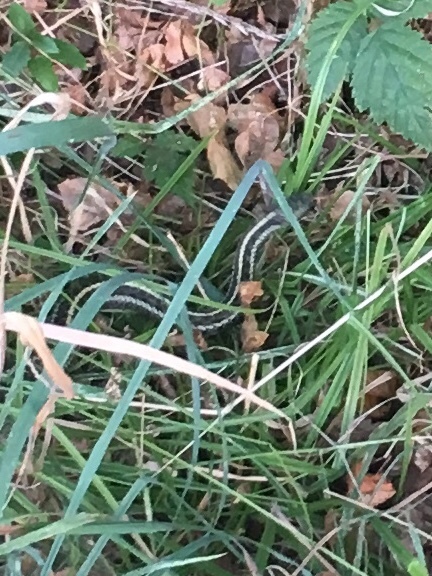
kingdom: Animalia
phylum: Chordata
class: Squamata
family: Colubridae
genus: Thamnophis
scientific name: Thamnophis sirtalis
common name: Common garter snake
